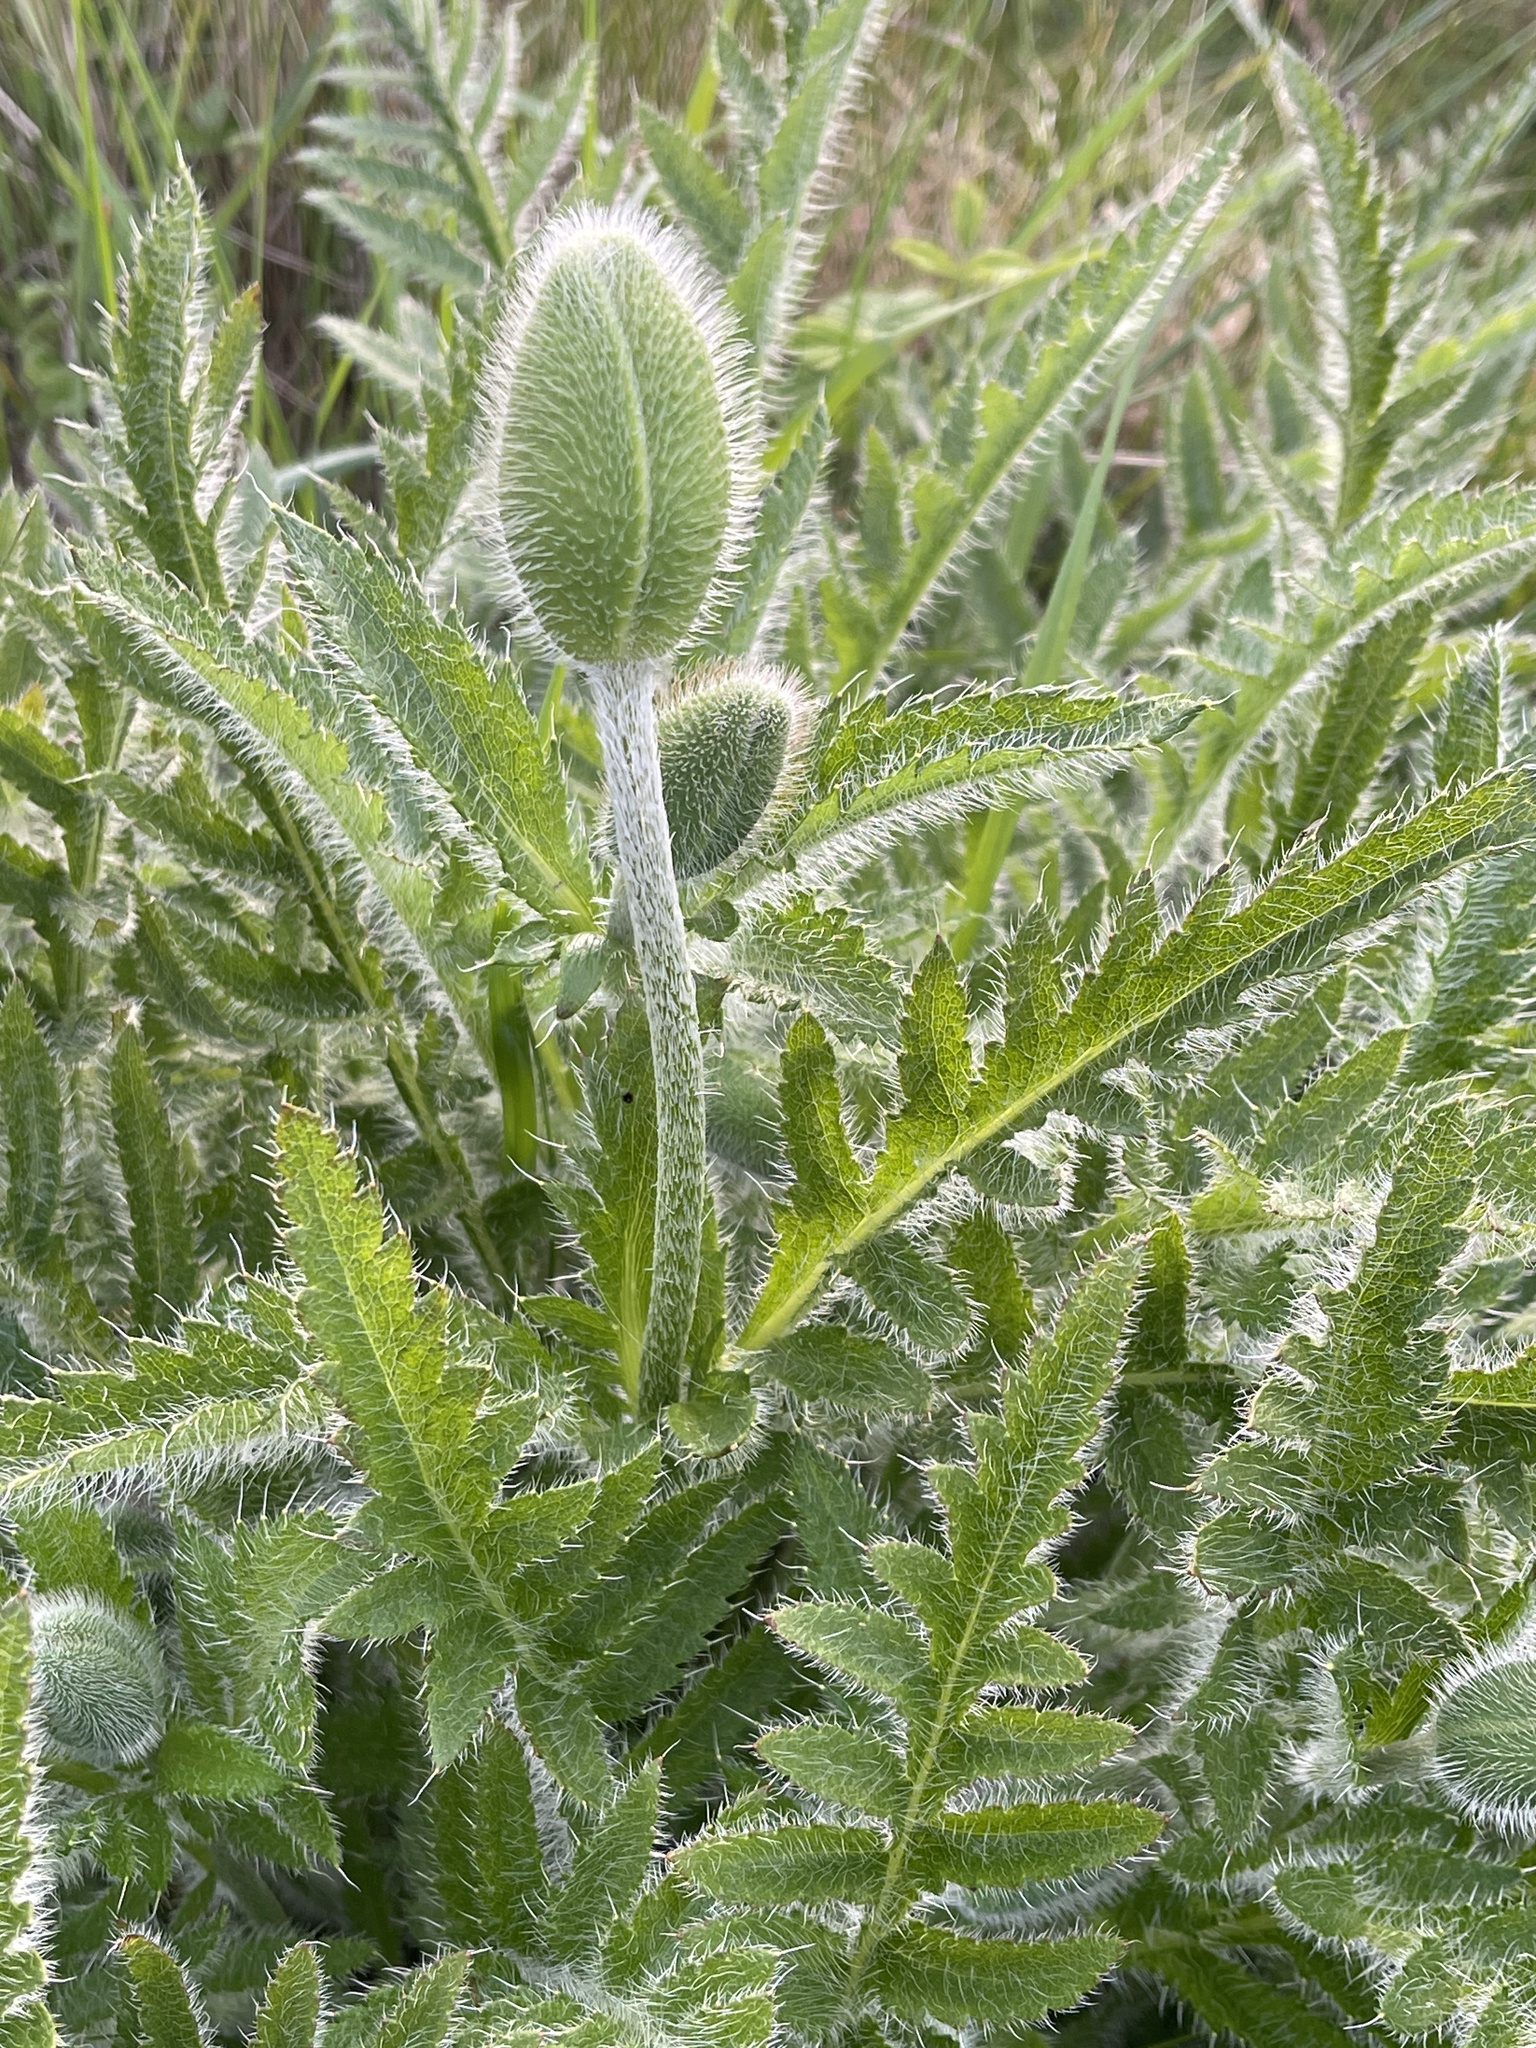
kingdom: Plantae
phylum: Tracheophyta
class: Magnoliopsida
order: Ranunculales
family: Papaveraceae
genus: Papaver
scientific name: Papaver orientale
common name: Oriental poppy
